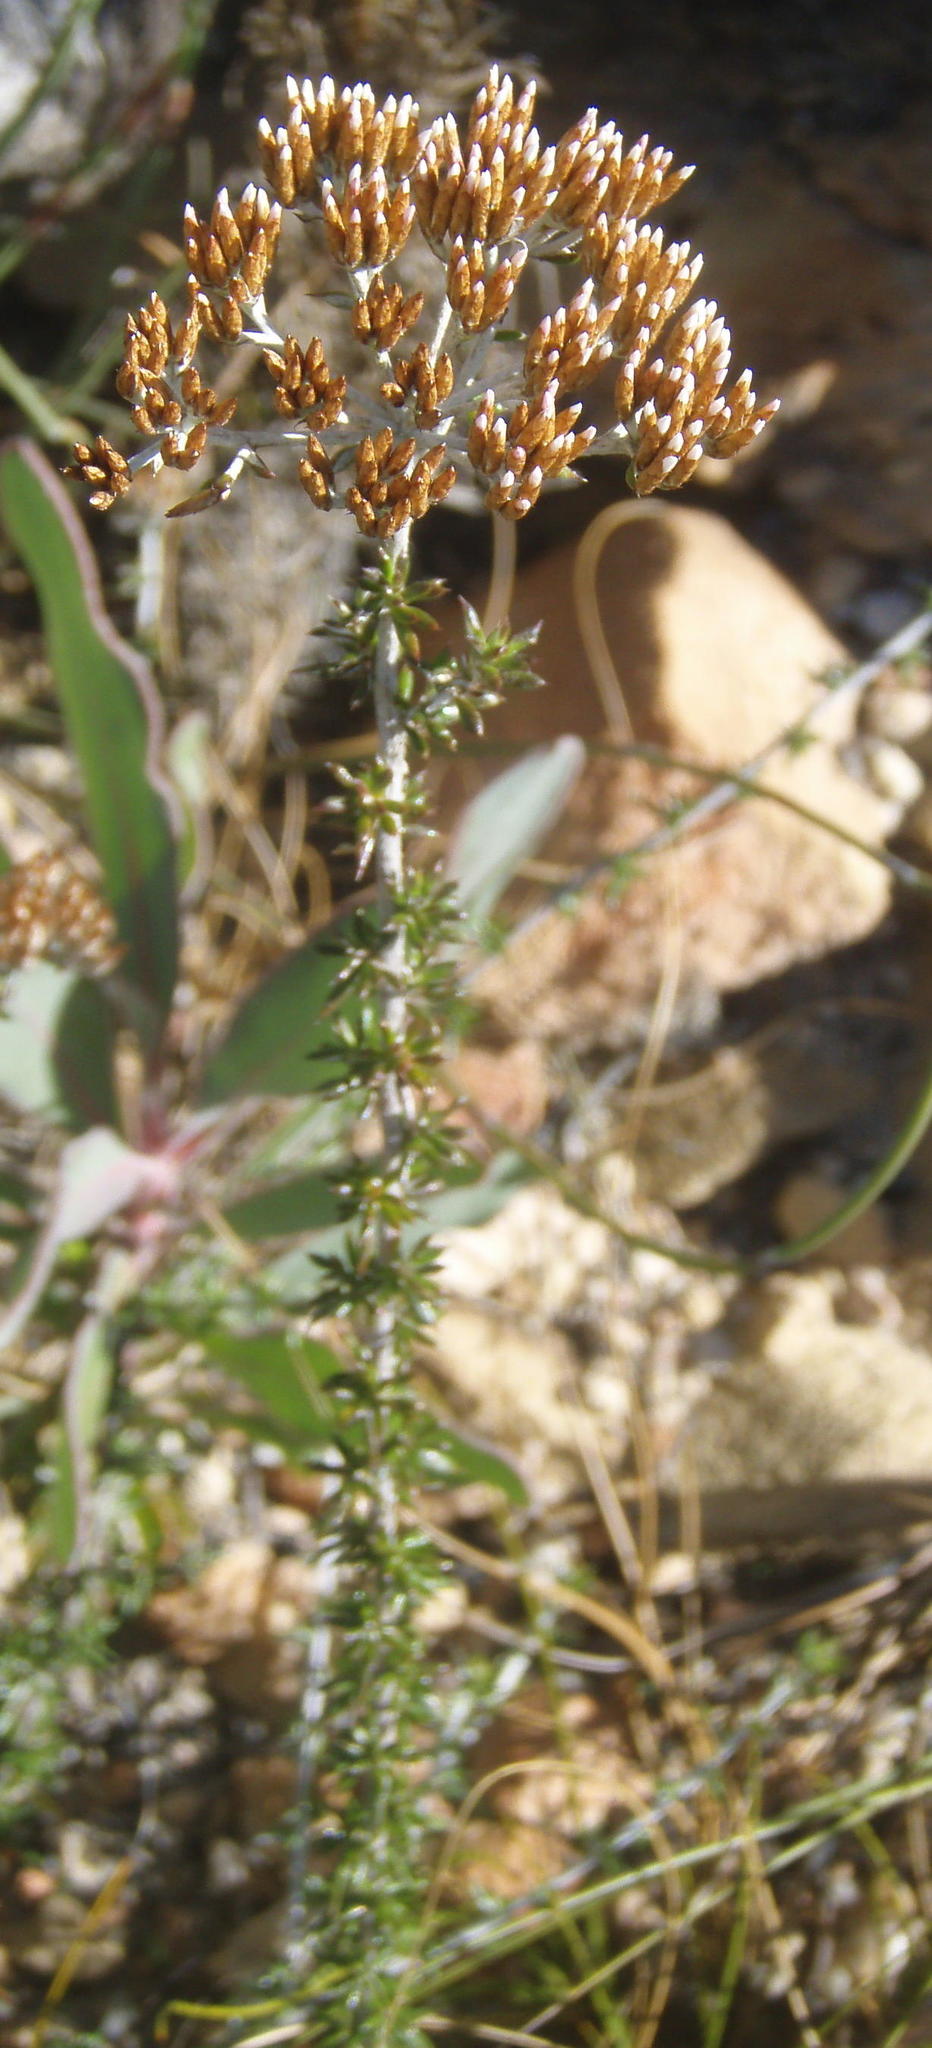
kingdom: Plantae
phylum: Tracheophyta
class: Magnoliopsida
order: Asterales
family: Asteraceae
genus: Metalasia
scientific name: Metalasia densa
